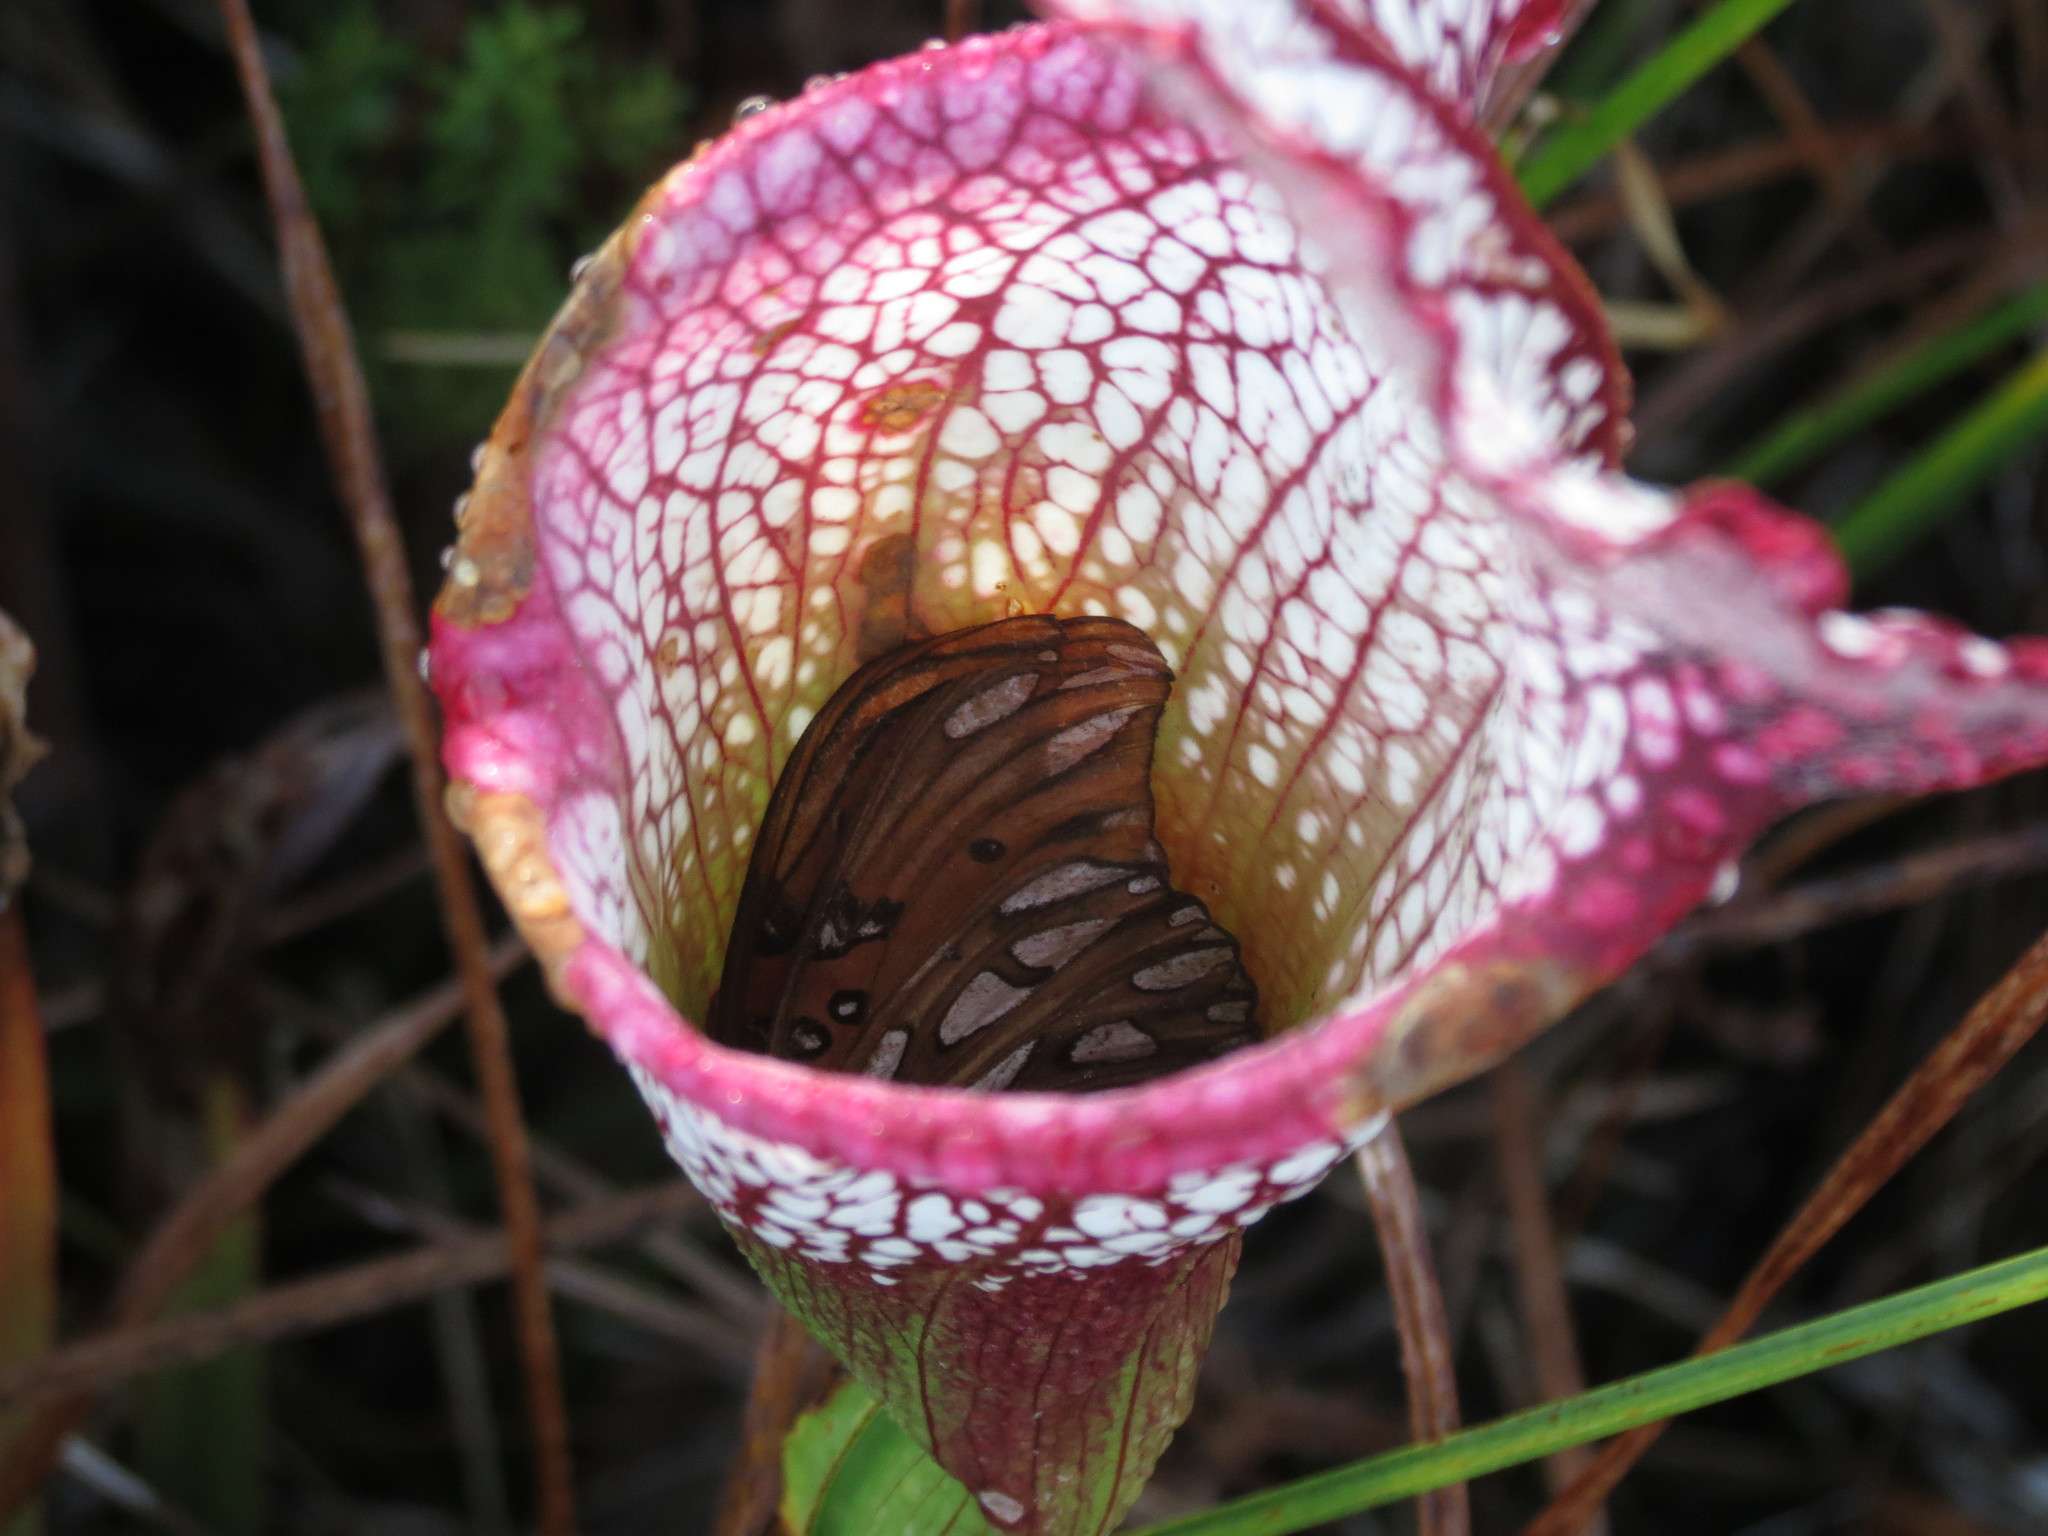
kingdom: Animalia
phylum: Arthropoda
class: Insecta
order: Lepidoptera
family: Nymphalidae
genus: Dione
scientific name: Dione vanillae
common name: Gulf fritillary
